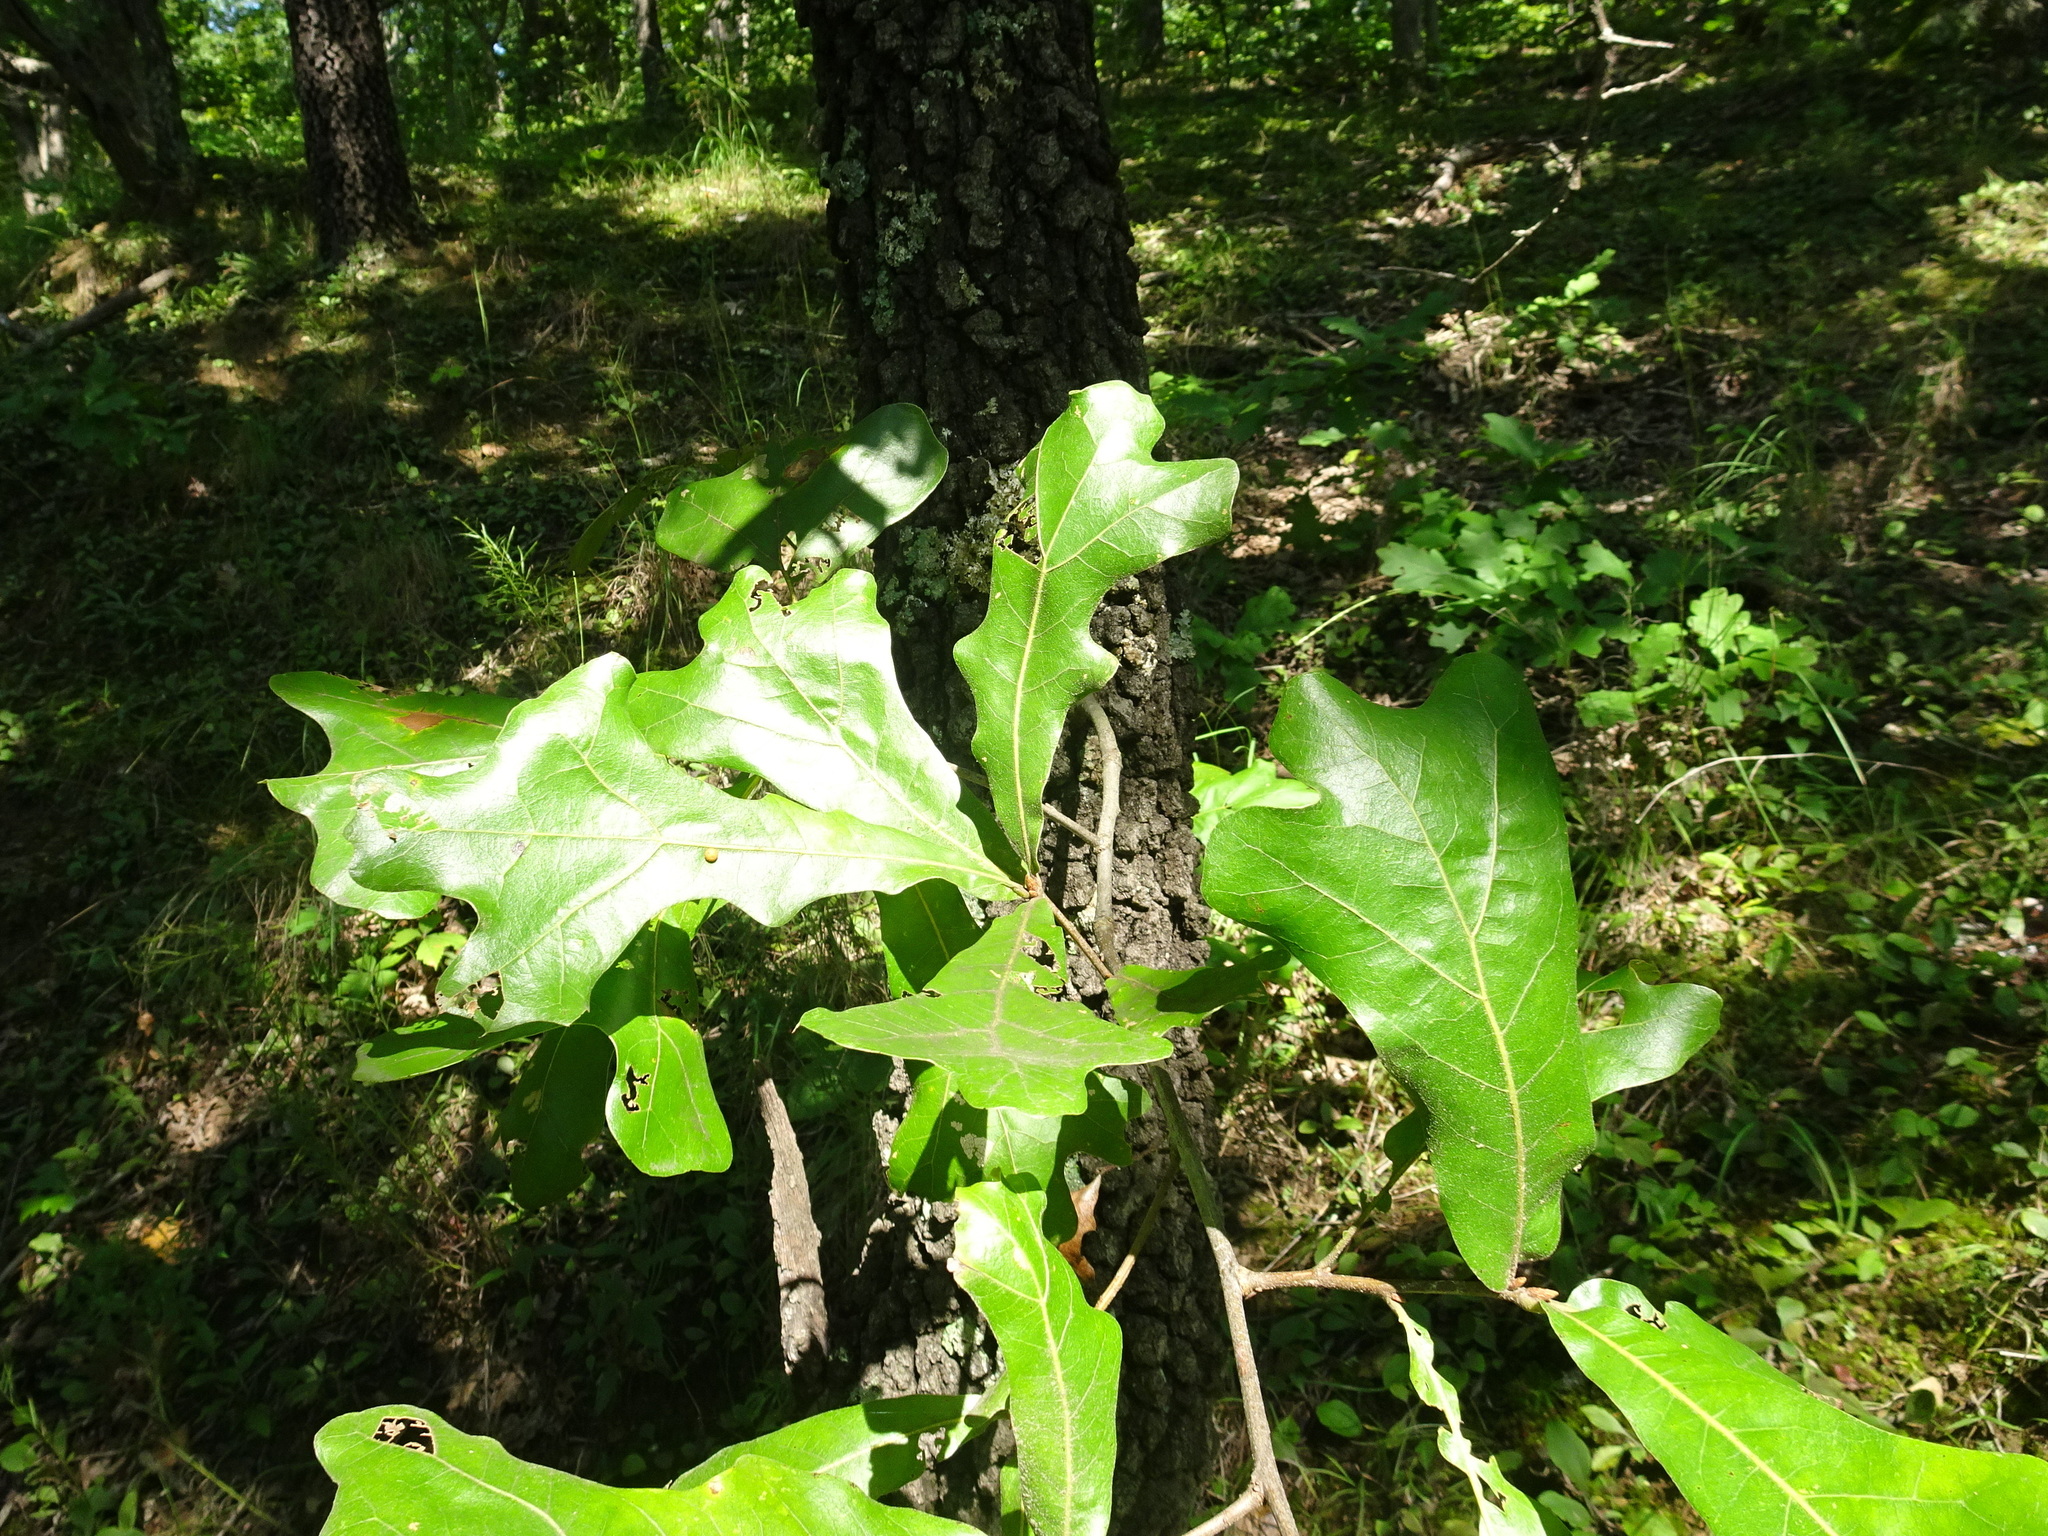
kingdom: Plantae
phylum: Tracheophyta
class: Magnoliopsida
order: Fagales
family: Fagaceae
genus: Quercus
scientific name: Quercus marilandica
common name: Blackjack oak
